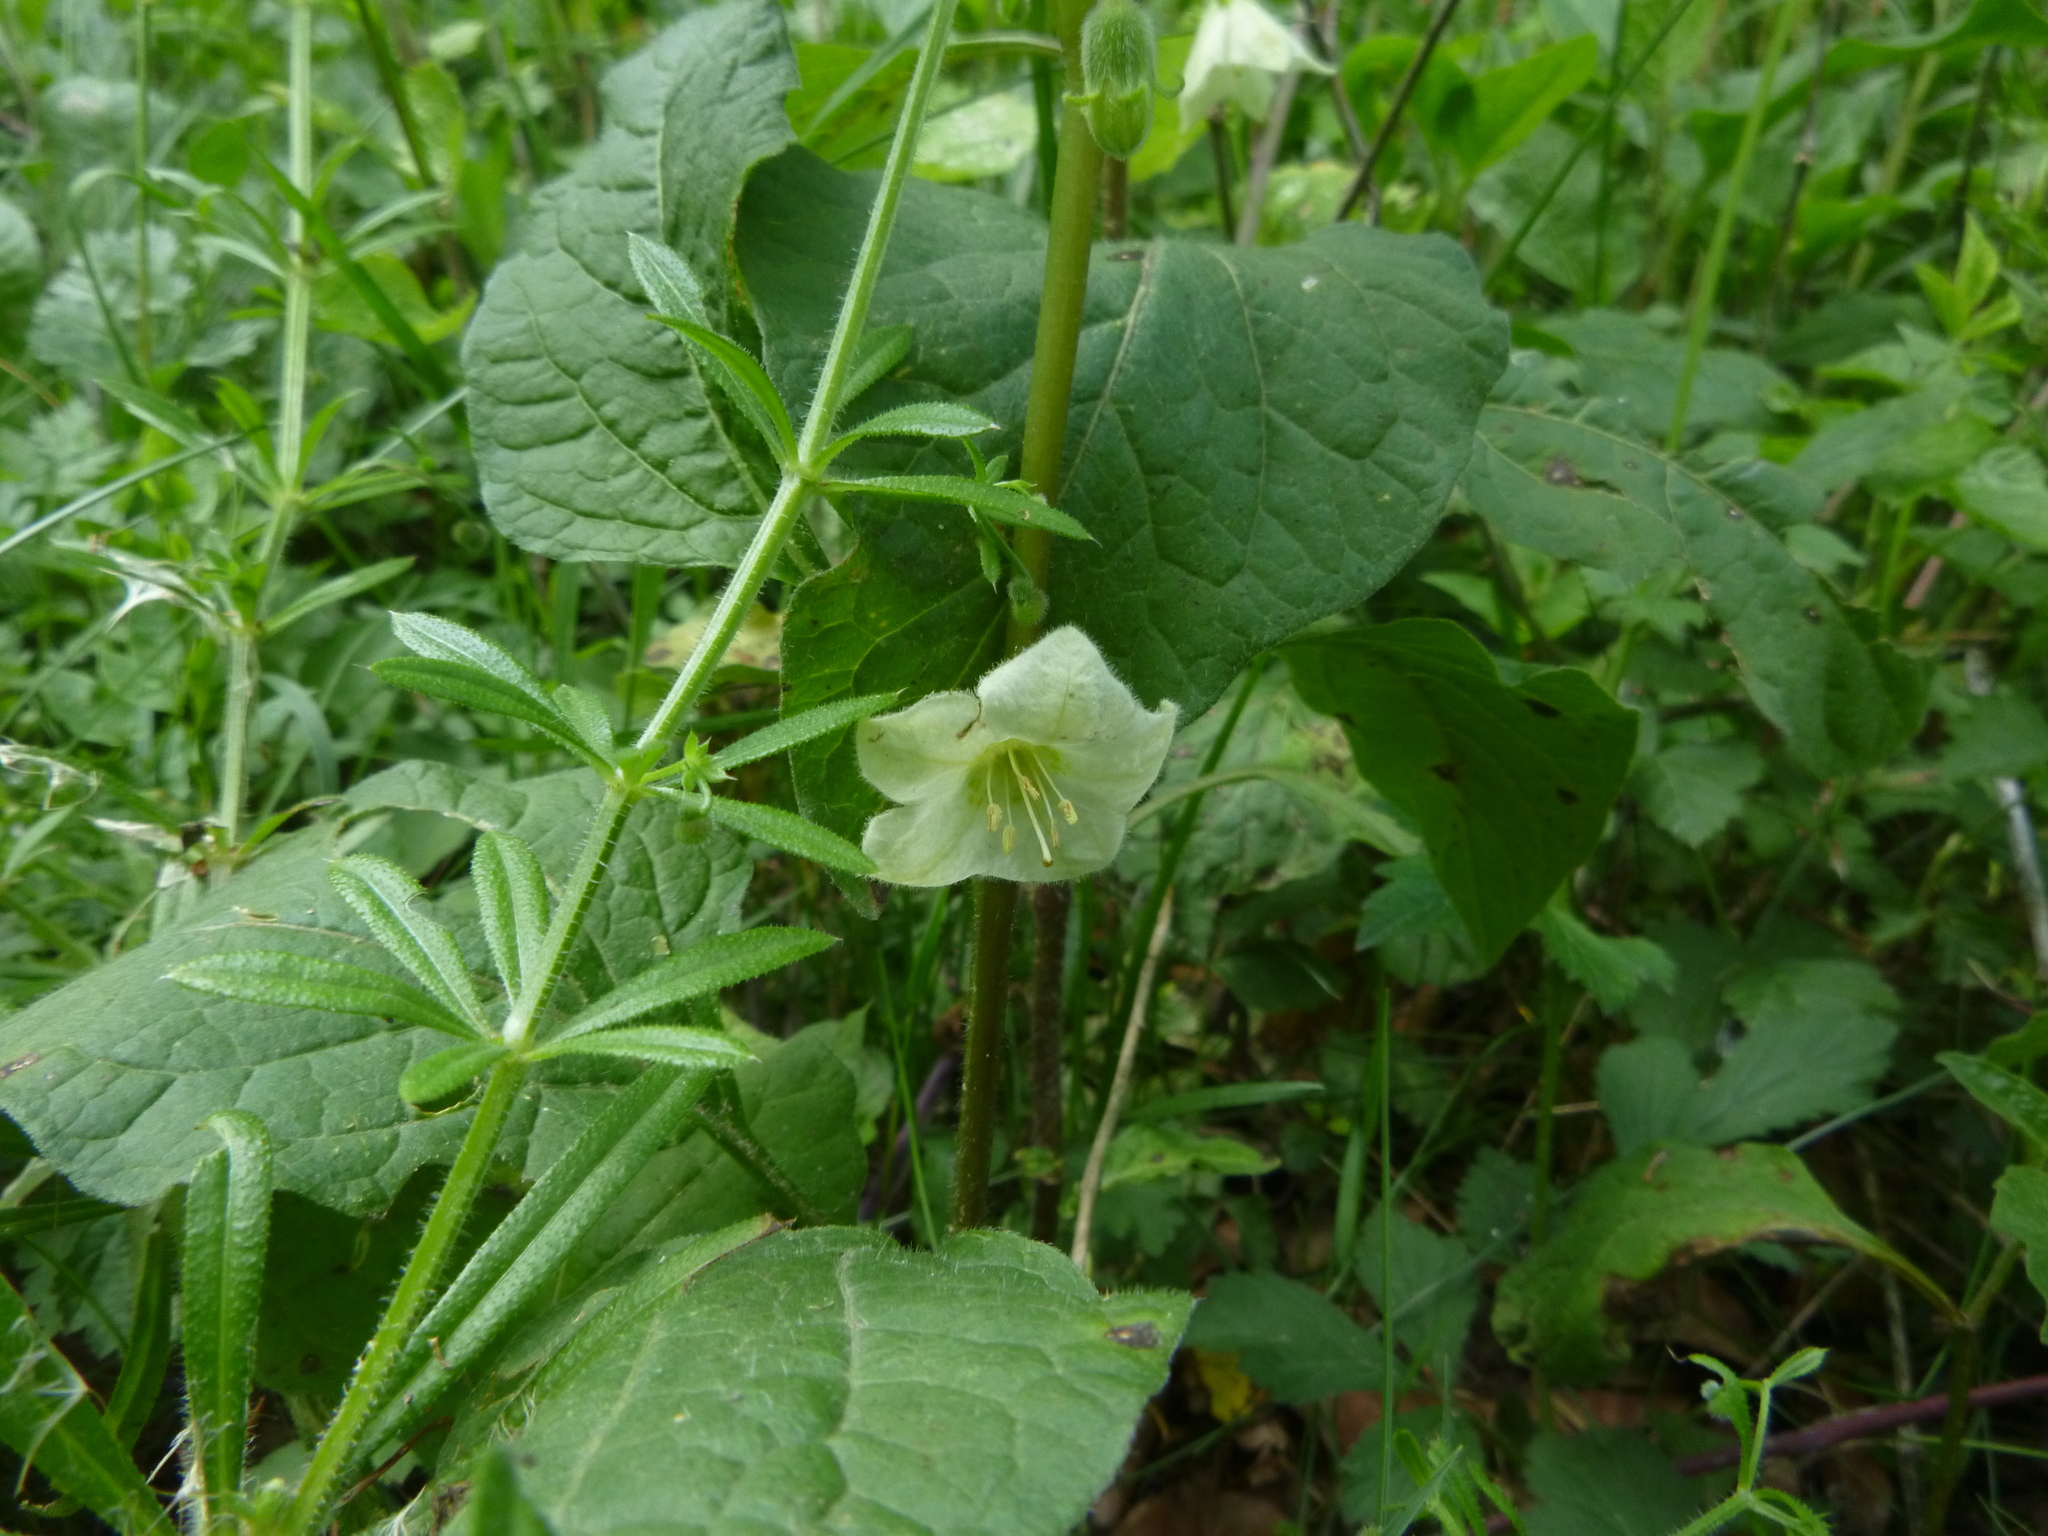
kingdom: Plantae
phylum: Tracheophyta
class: Magnoliopsida
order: Solanales
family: Solanaceae
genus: Alkekengi
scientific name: Alkekengi officinarum
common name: Japanese-lantern
